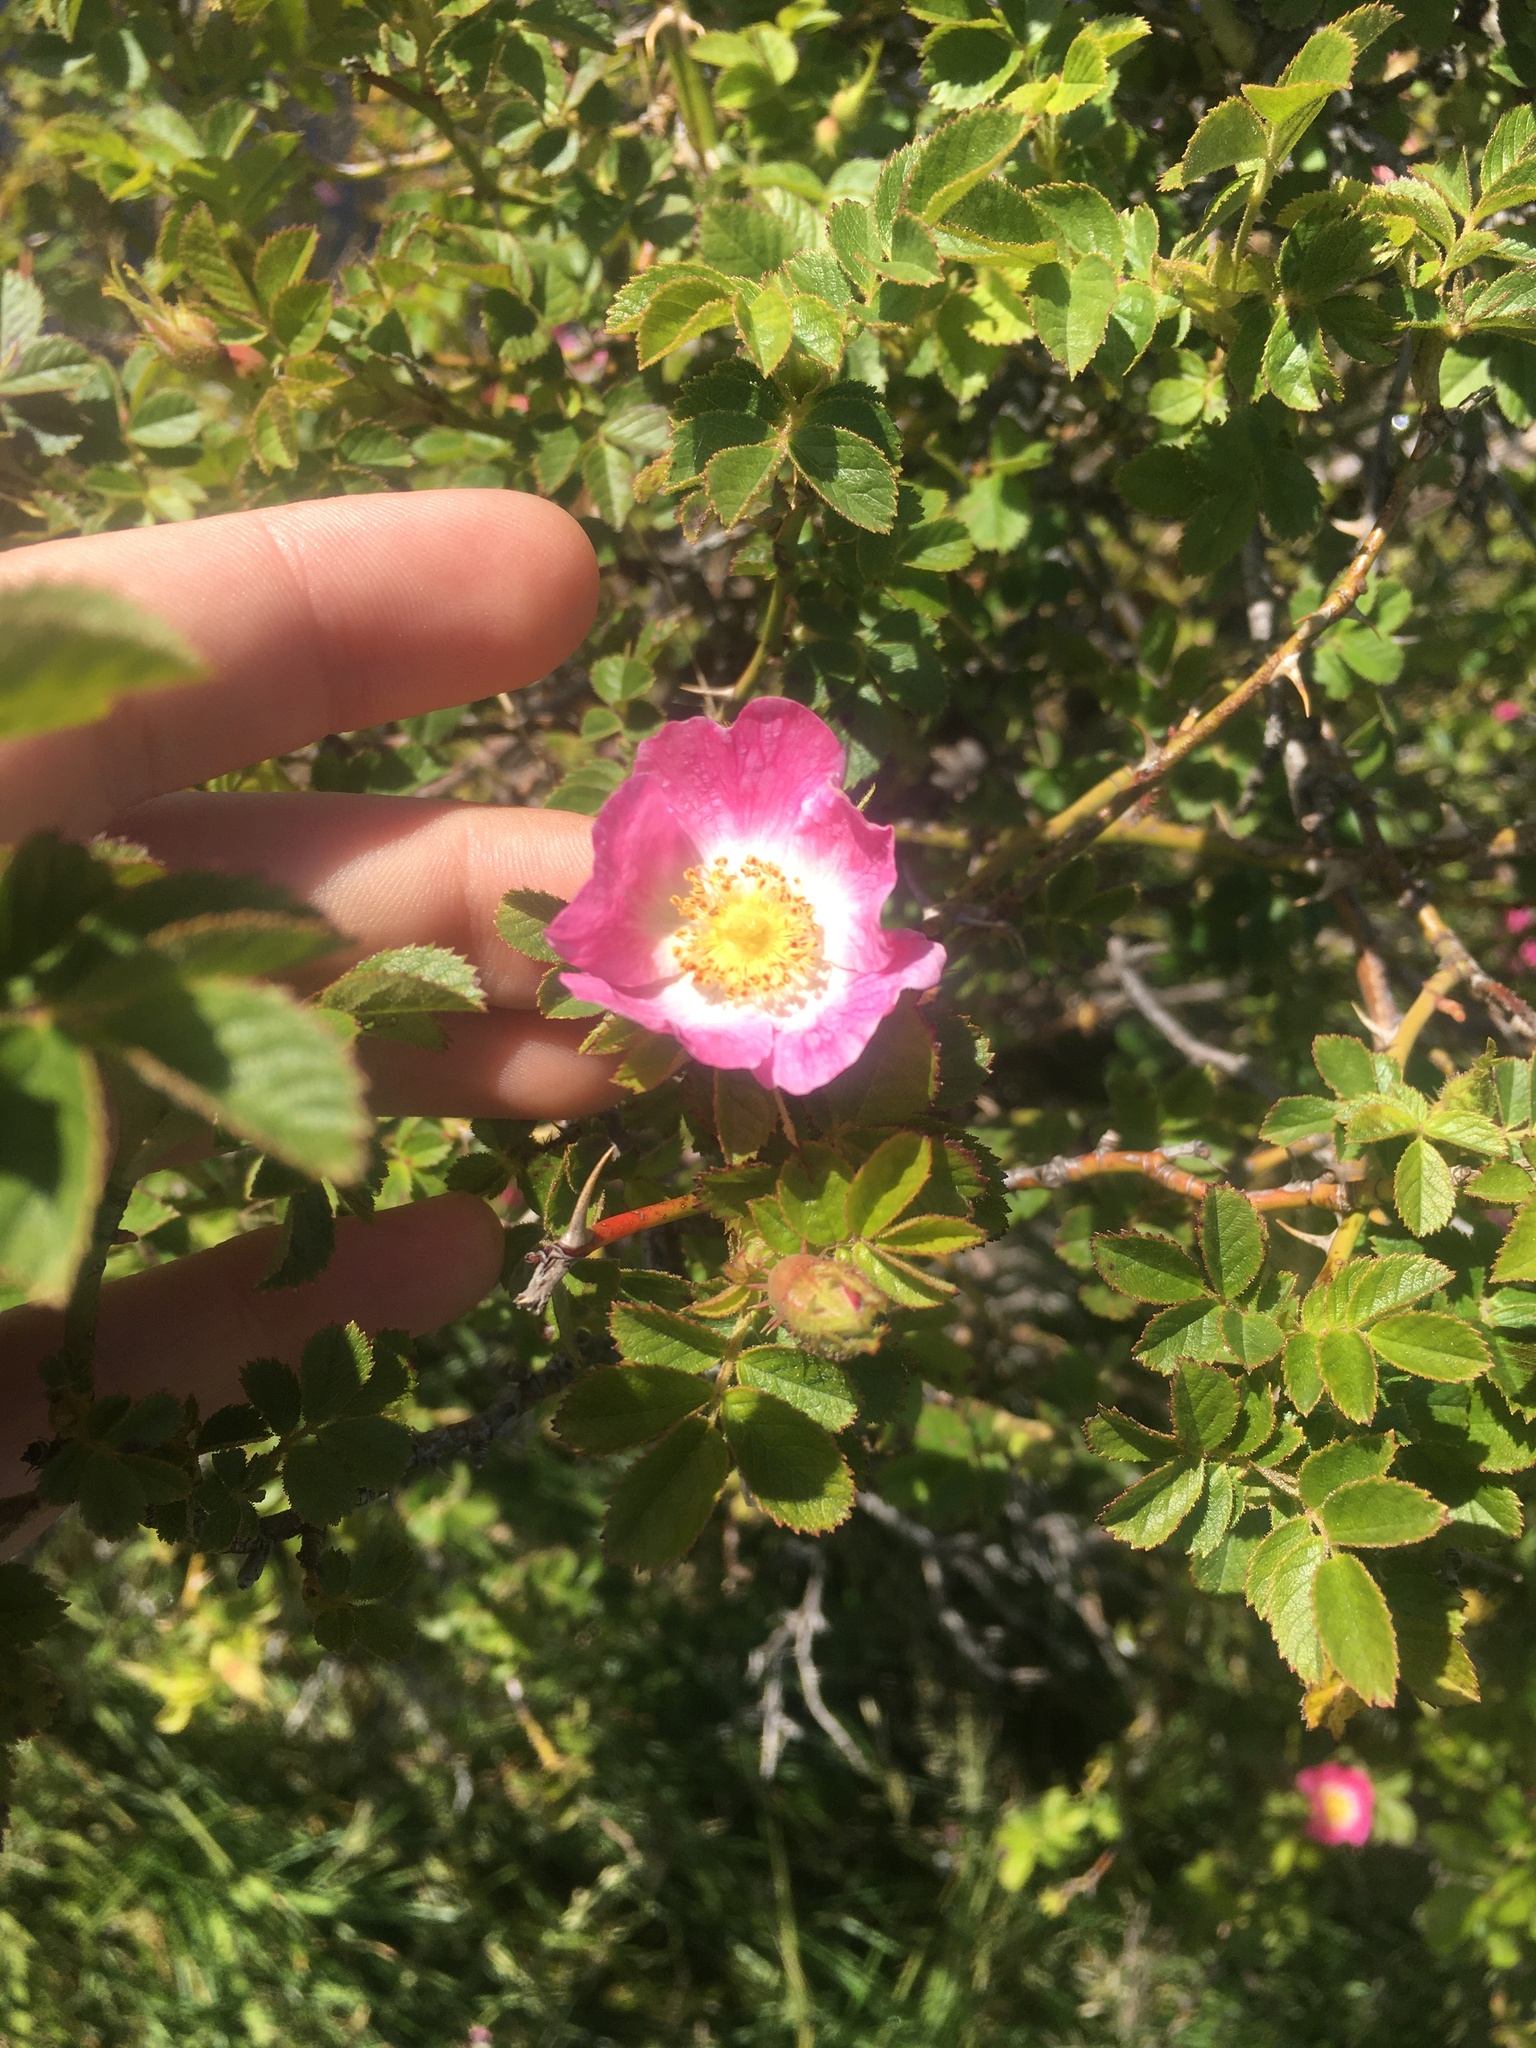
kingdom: Plantae
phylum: Tracheophyta
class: Magnoliopsida
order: Rosales
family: Rosaceae
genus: Rosa
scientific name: Rosa rubiginosa
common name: Sweet-briar
